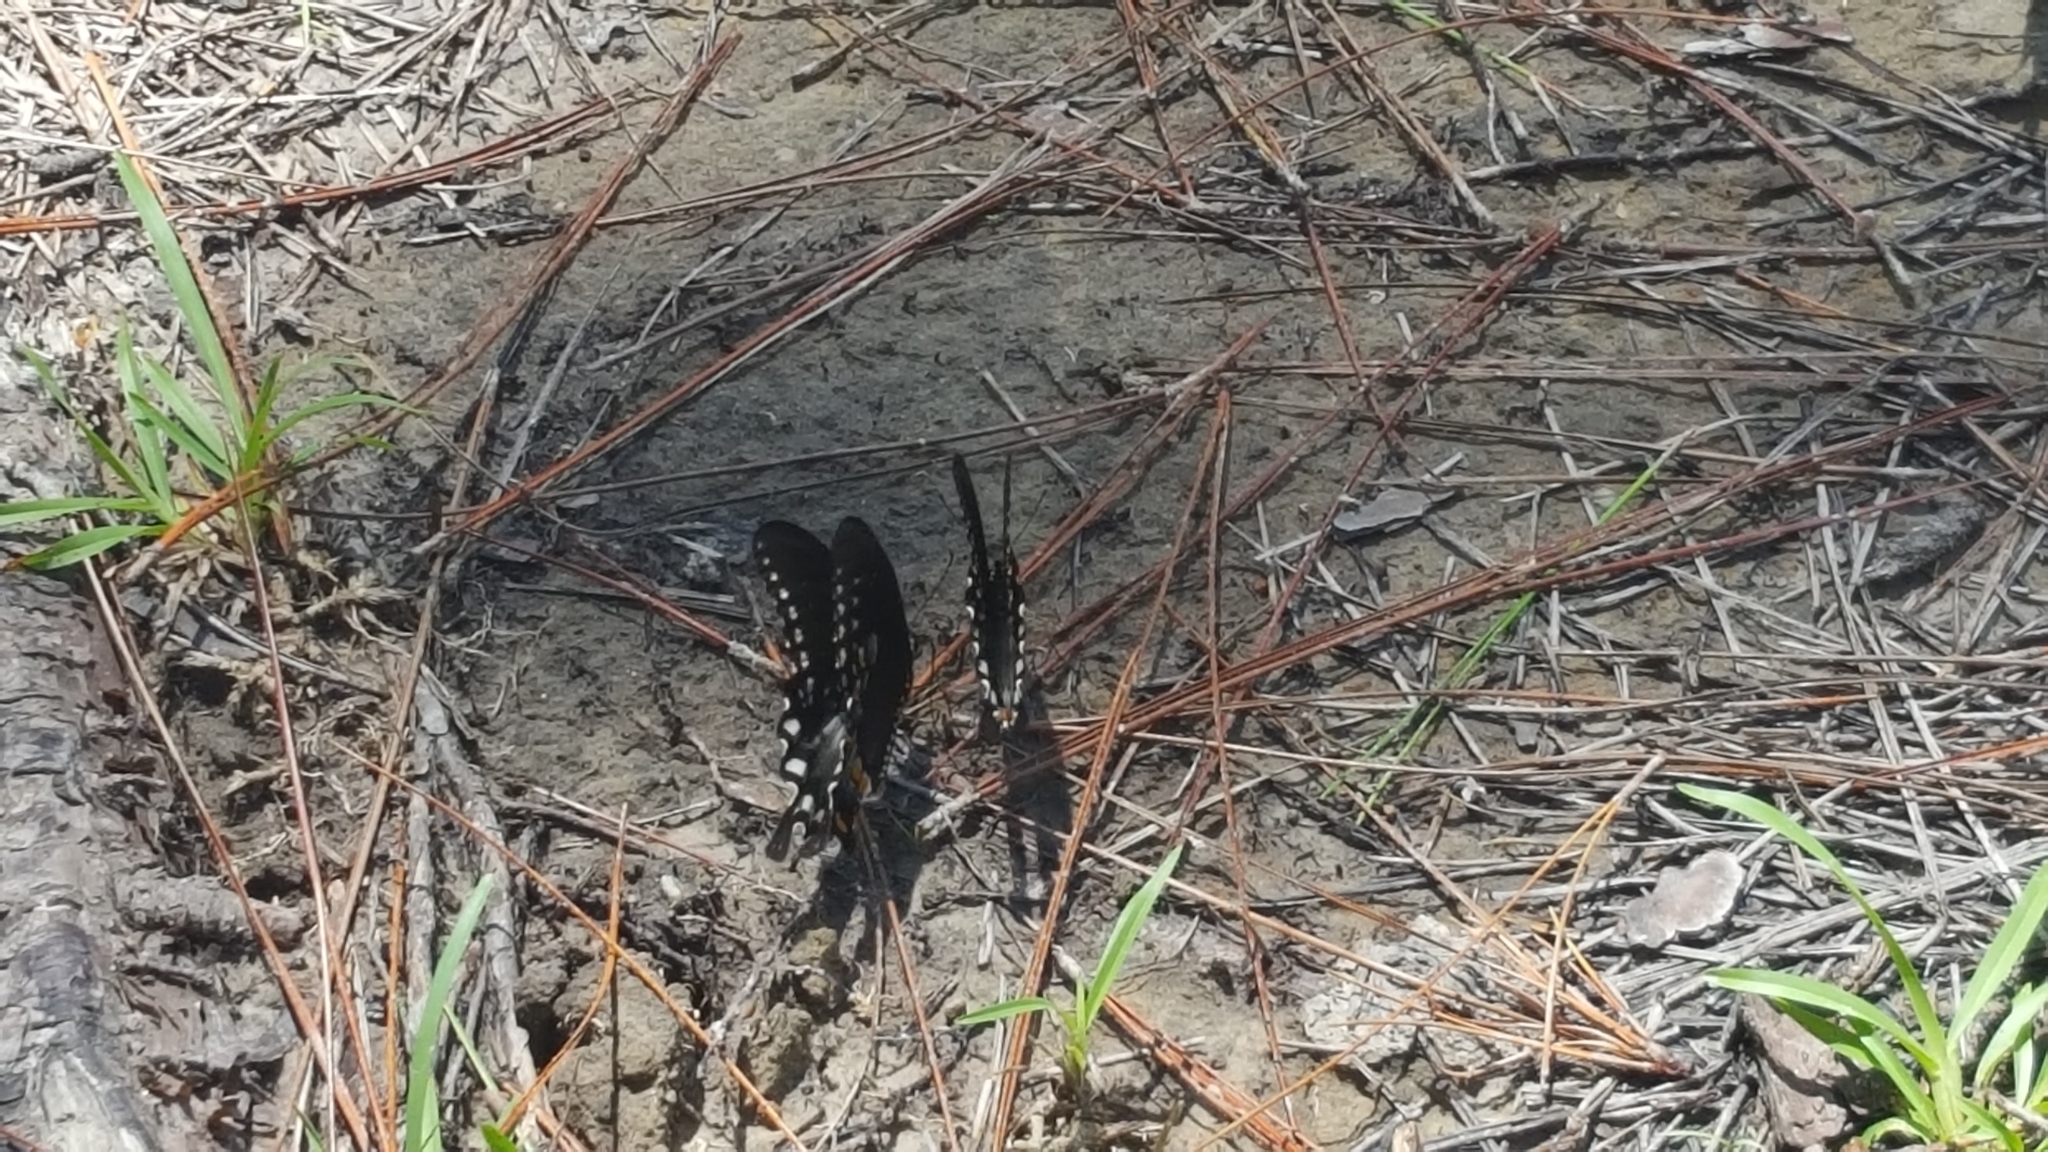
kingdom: Animalia
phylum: Arthropoda
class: Insecta
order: Lepidoptera
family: Papilionidae
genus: Papilio
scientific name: Papilio troilus
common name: Spicebush swallowtail
